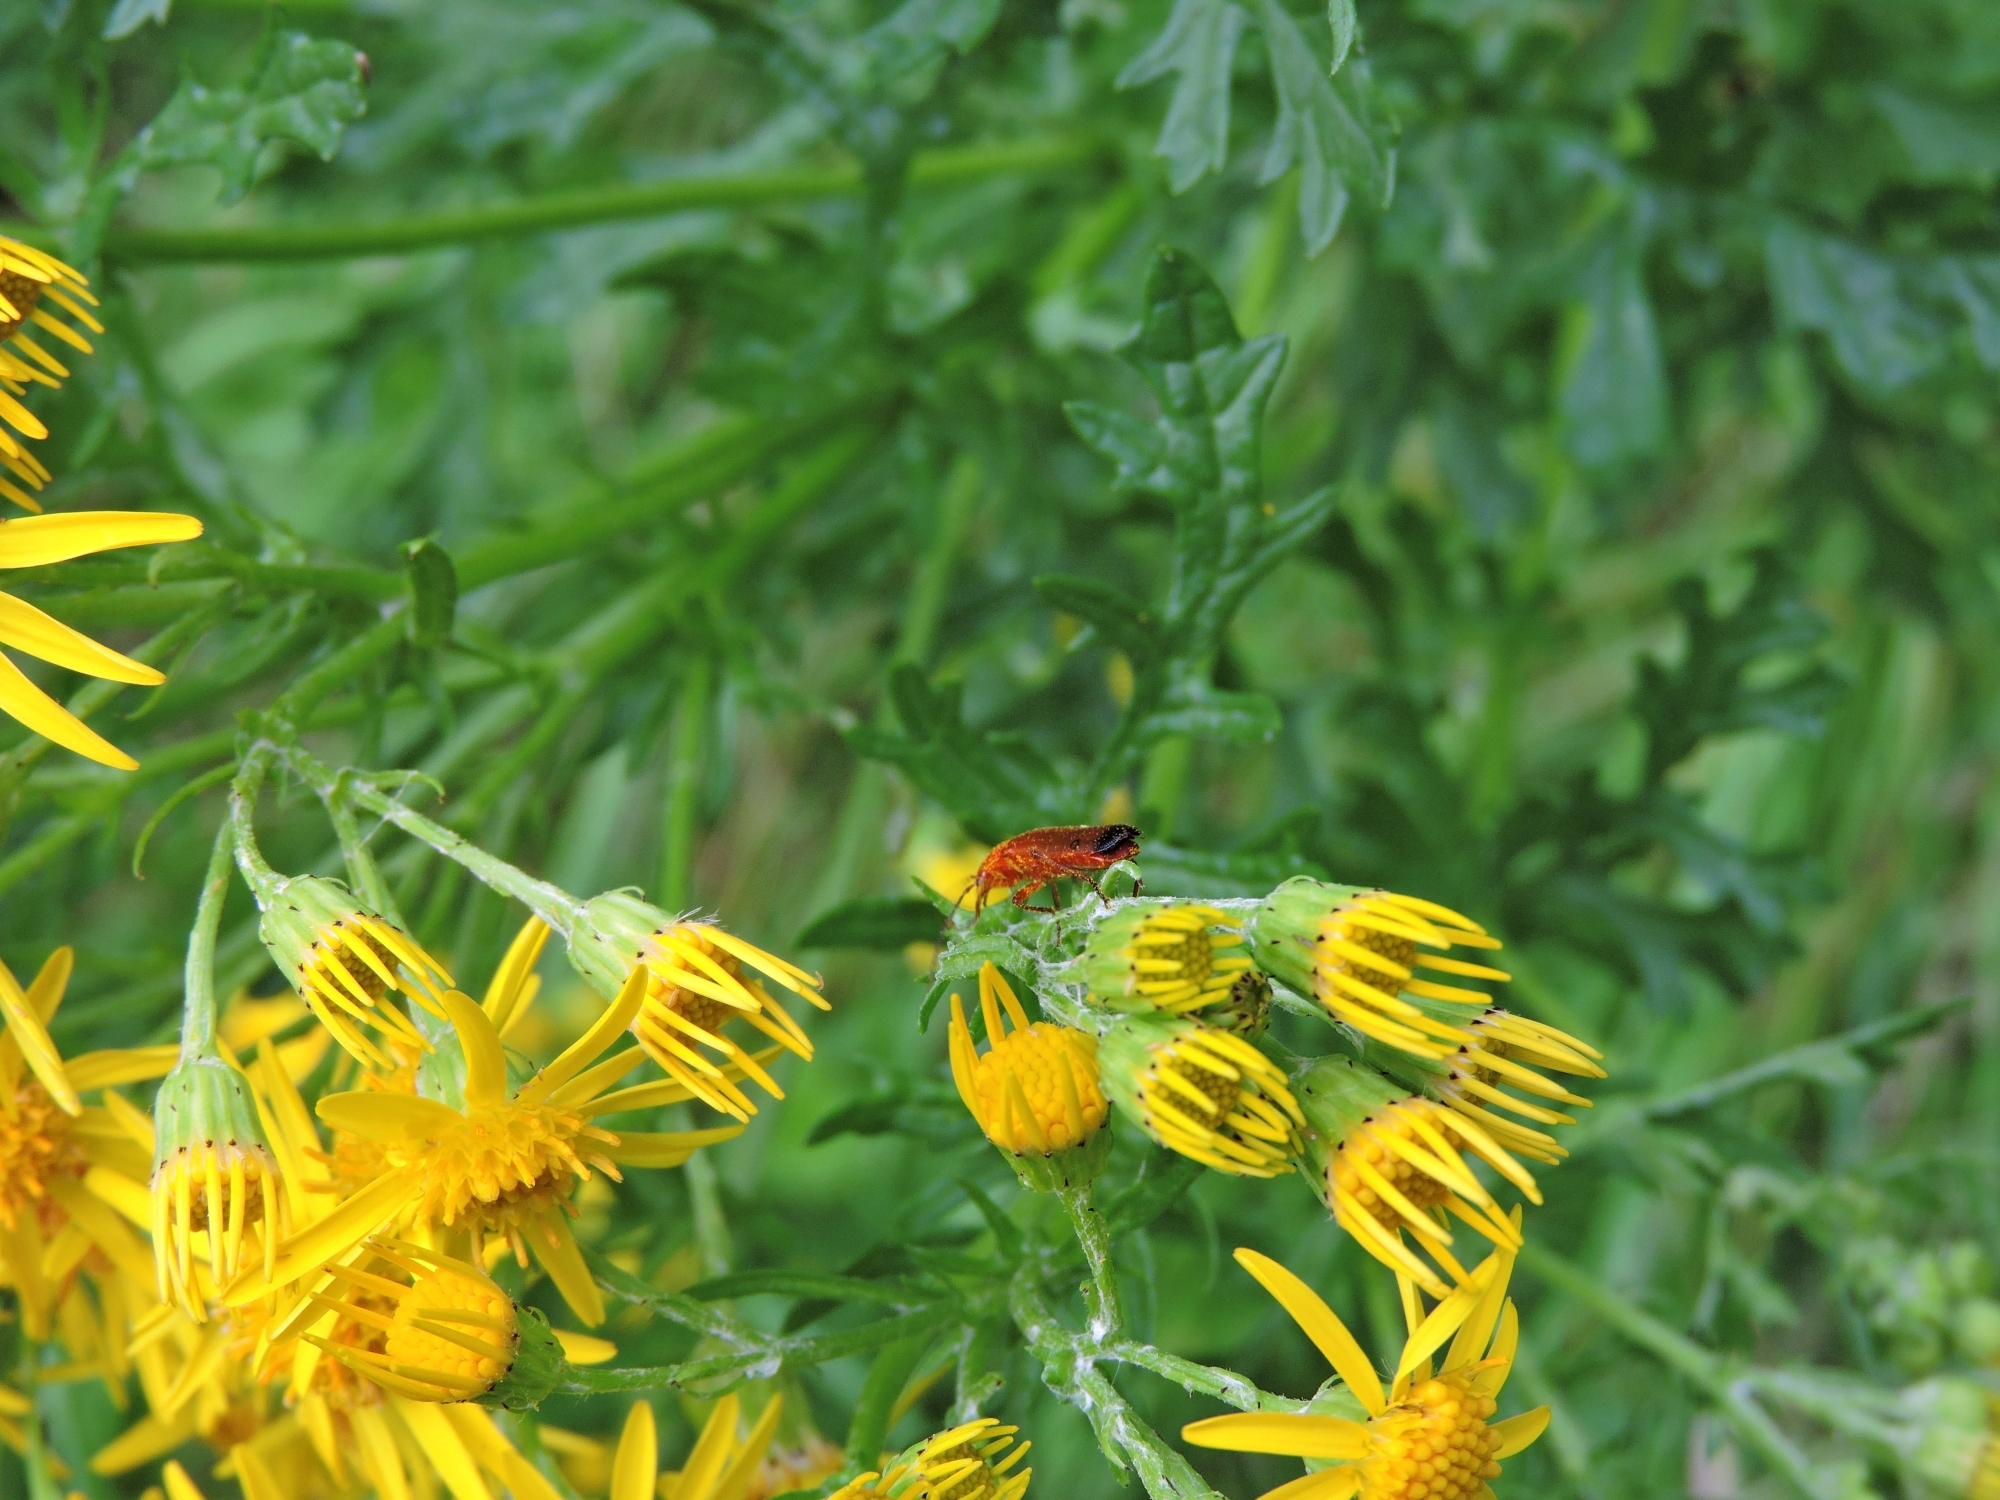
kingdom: Animalia
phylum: Arthropoda
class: Insecta
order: Coleoptera
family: Cantharidae
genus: Rhagonycha
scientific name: Rhagonycha fulva
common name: Common red soldier beetle
